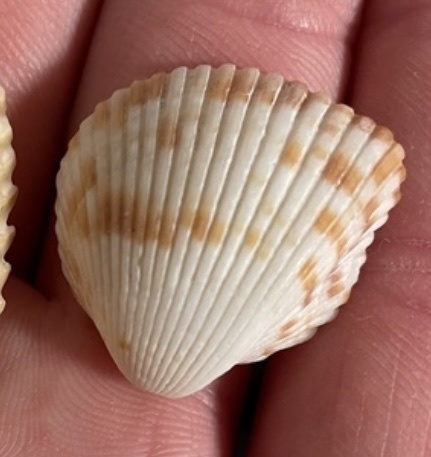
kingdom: Animalia
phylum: Mollusca
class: Bivalvia
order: Cardiida
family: Cardiidae
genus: Americardia
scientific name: Americardia media
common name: Atlantic strawberry-cockle
